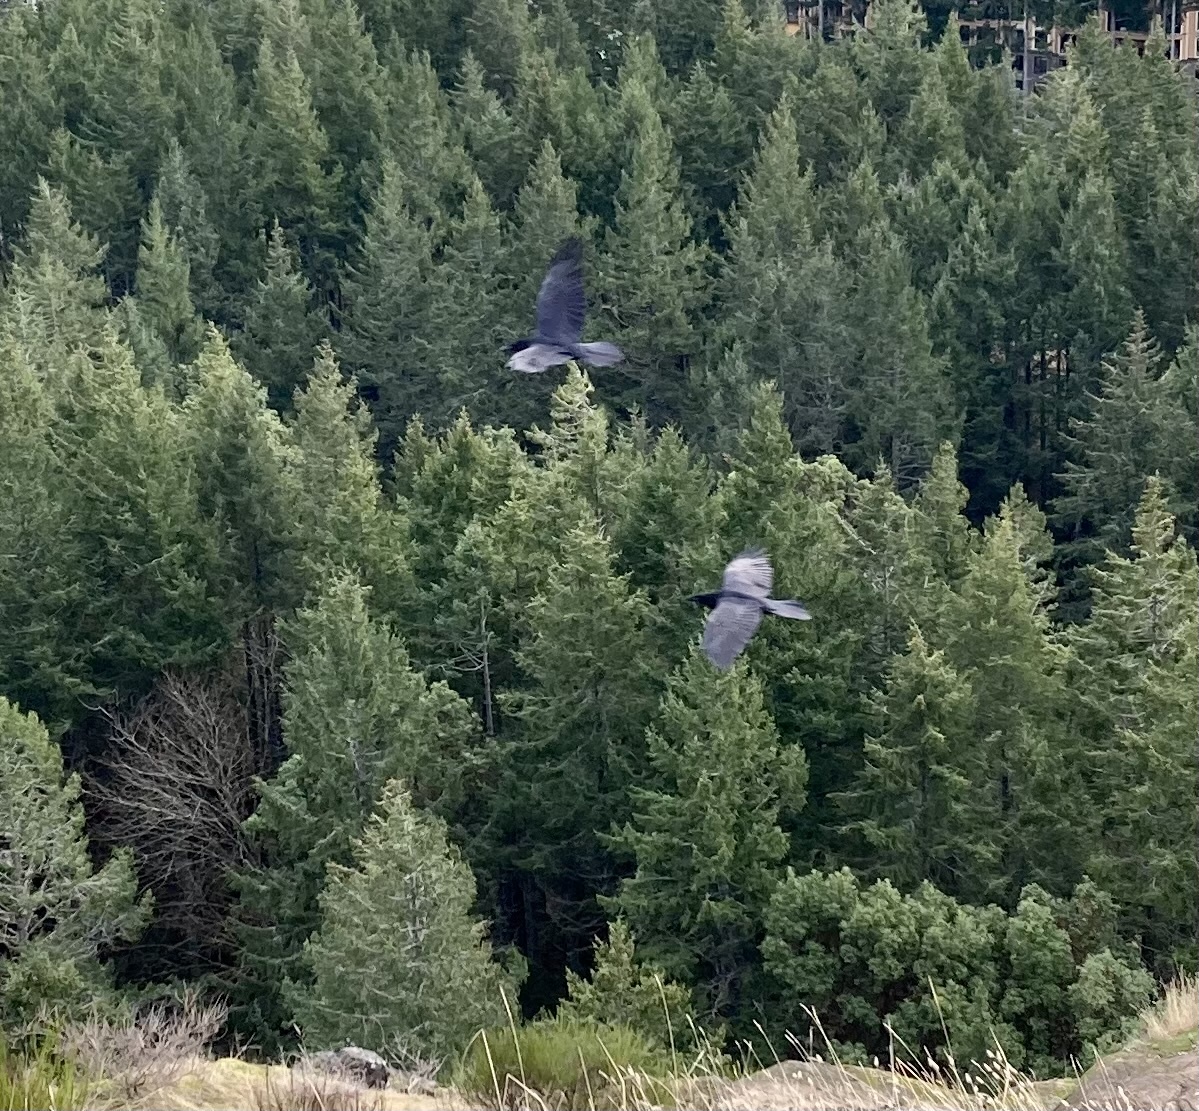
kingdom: Animalia
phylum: Chordata
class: Aves
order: Passeriformes
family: Corvidae
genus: Corvus
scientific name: Corvus corax
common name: Common raven
